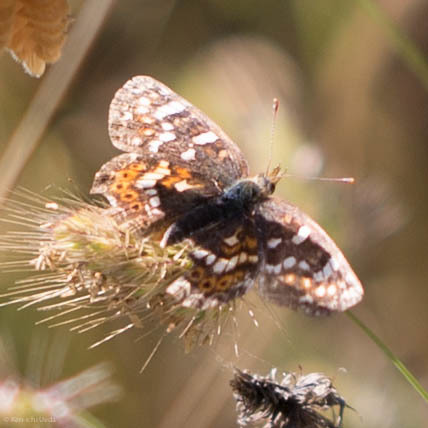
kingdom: Animalia
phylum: Arthropoda
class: Insecta
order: Lepidoptera
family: Nymphalidae
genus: Phyciodes
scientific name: Phyciodes tharos
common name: Pearl crescent
